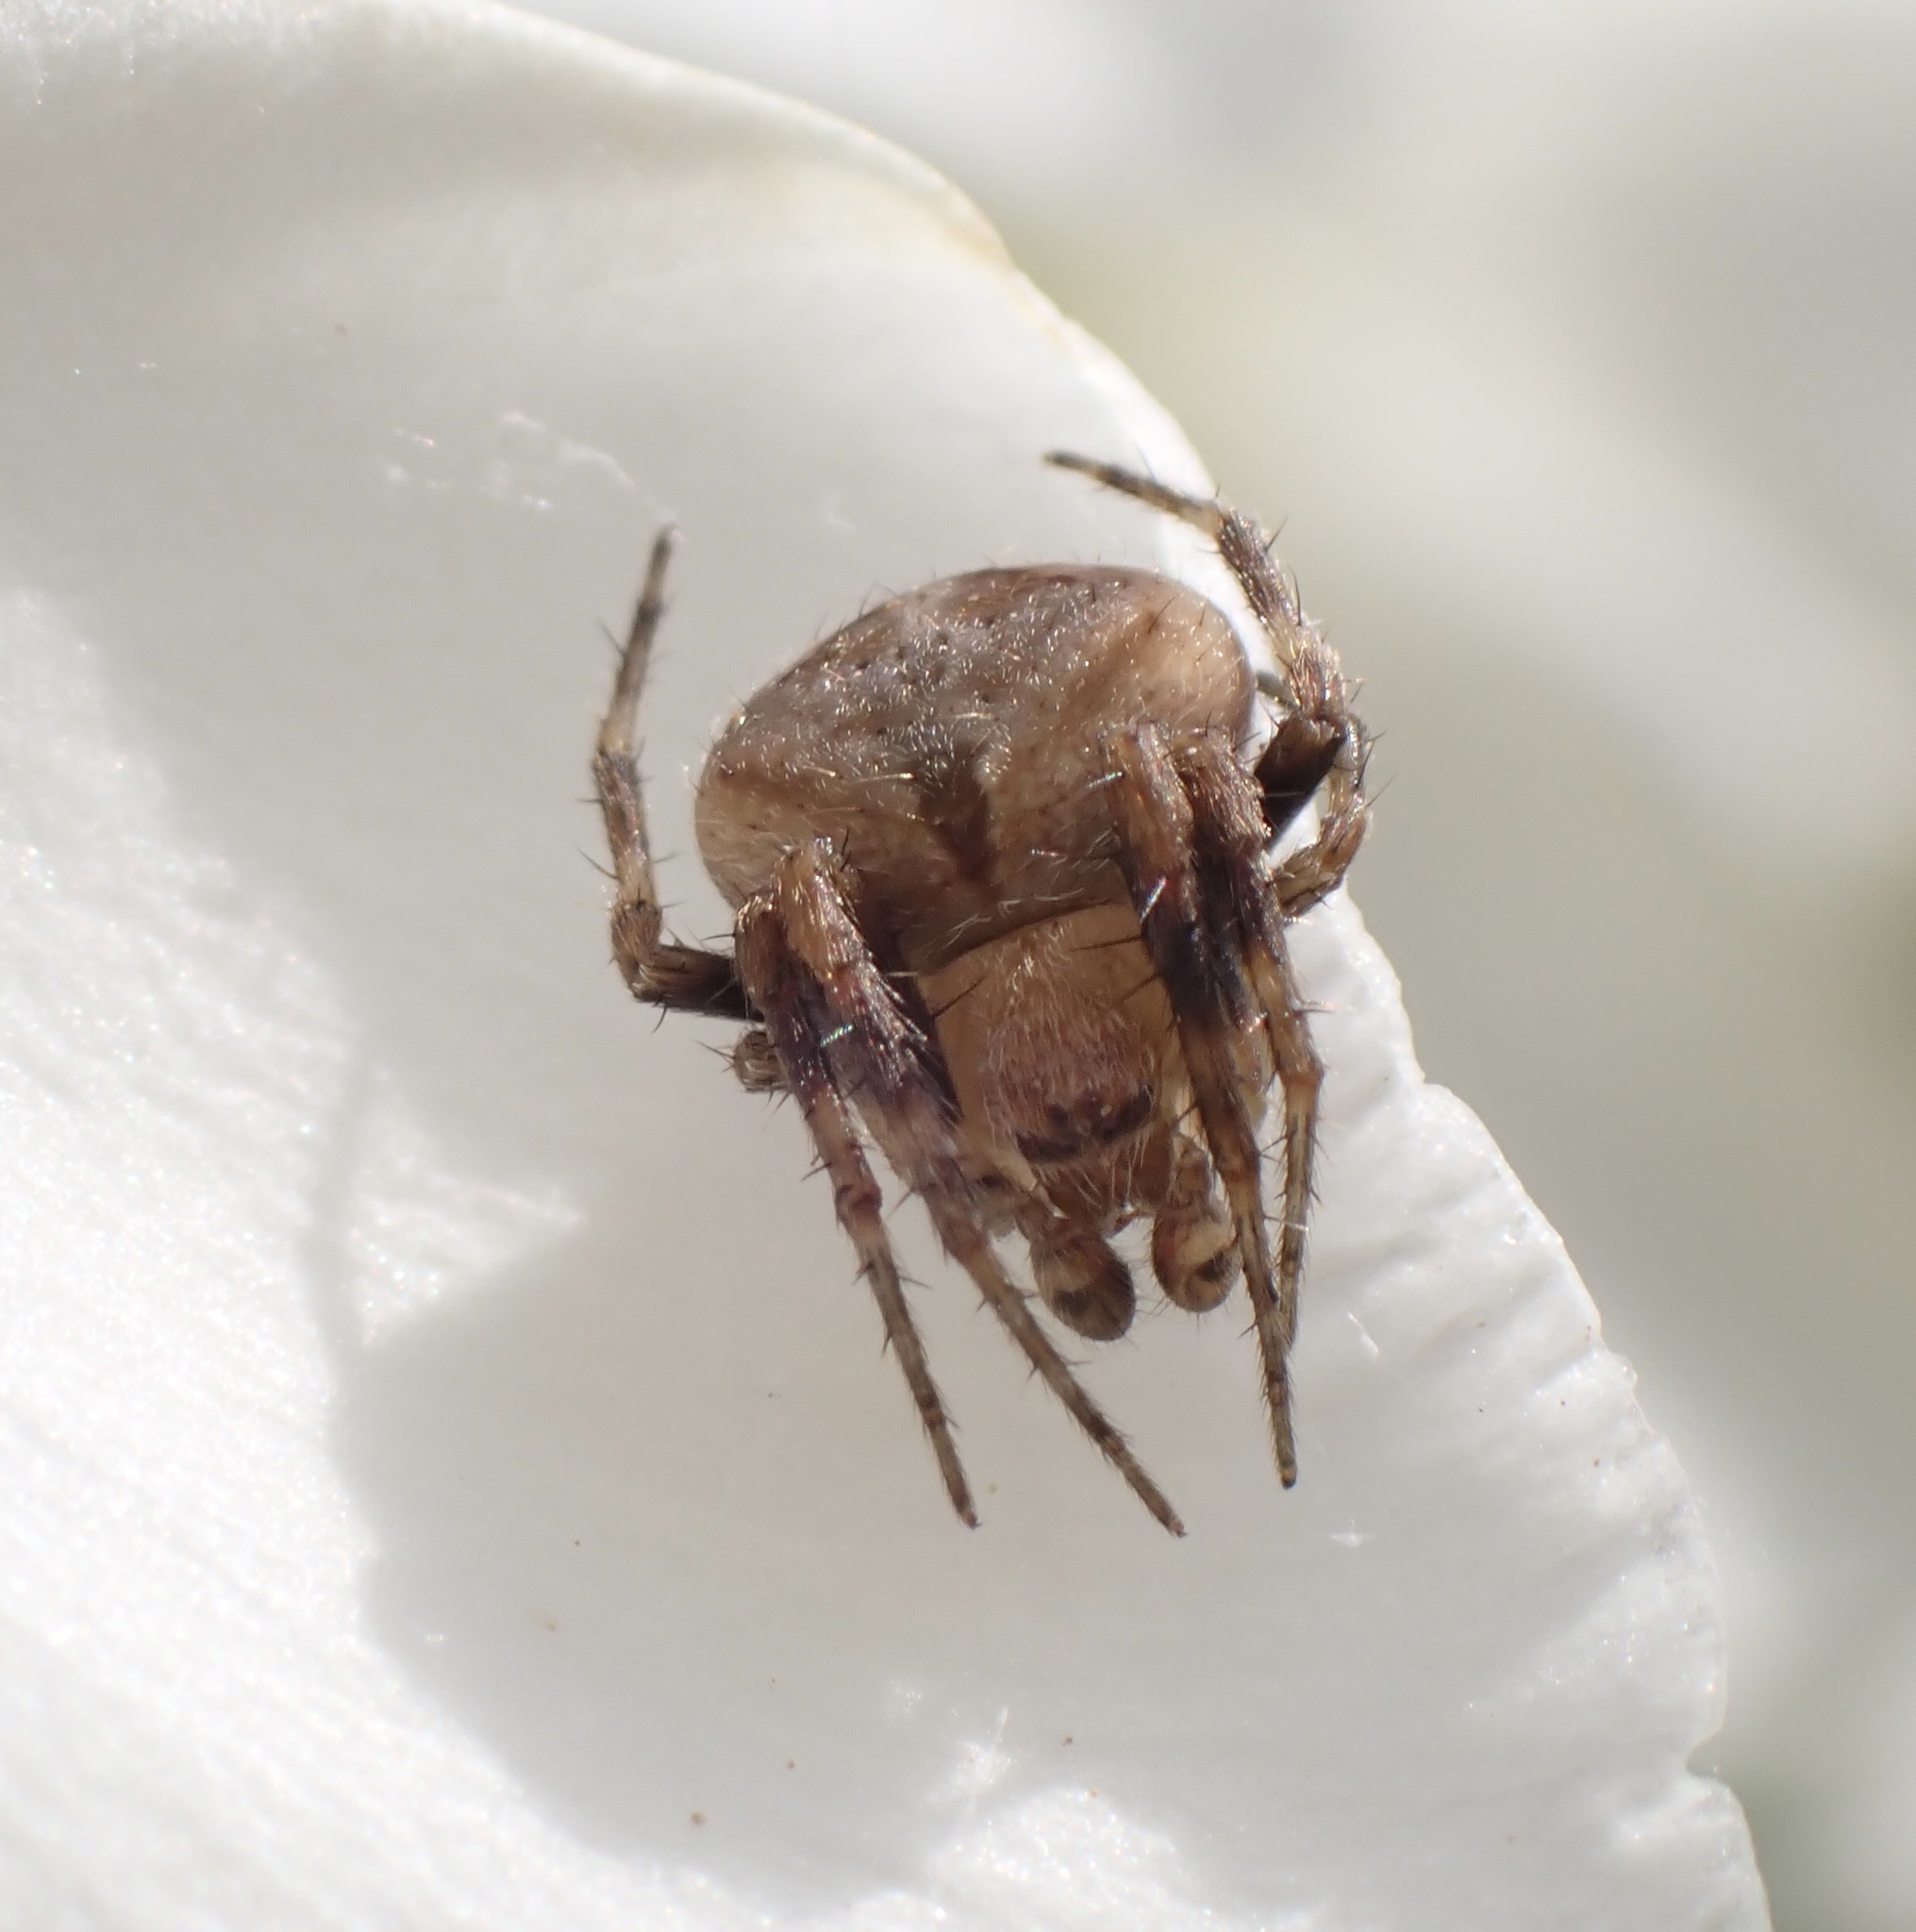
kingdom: Animalia
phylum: Arthropoda
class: Arachnida
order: Araneae
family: Araneidae
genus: Neoscona
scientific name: Neoscona subfusca
